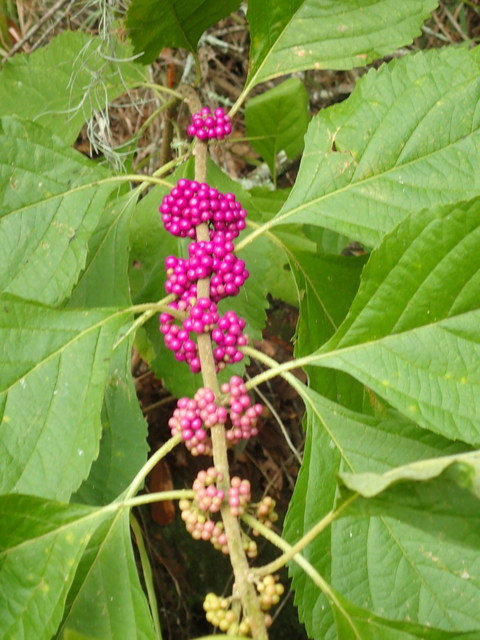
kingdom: Plantae
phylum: Tracheophyta
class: Magnoliopsida
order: Lamiales
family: Lamiaceae
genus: Callicarpa
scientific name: Callicarpa americana
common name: American beautyberry
